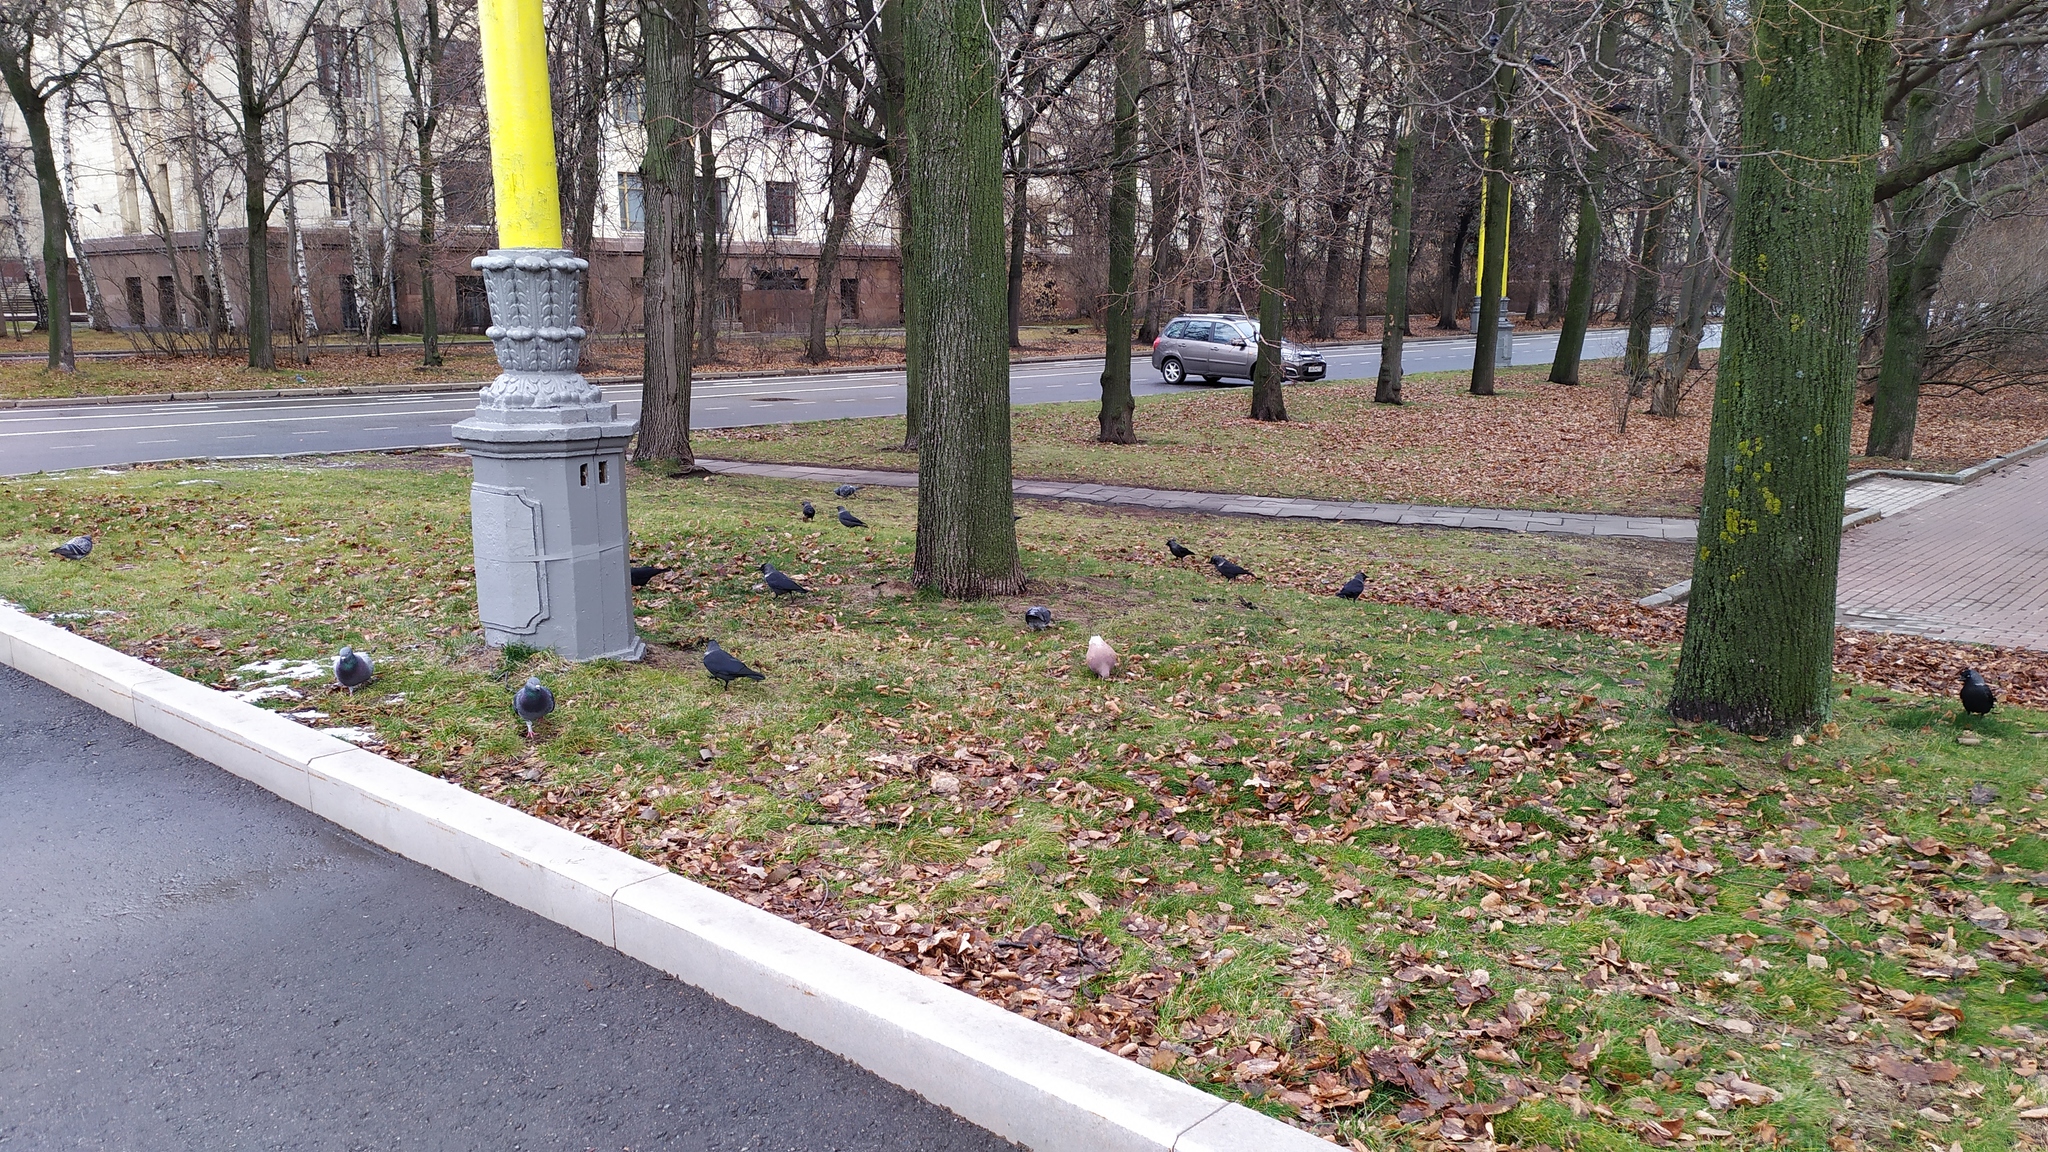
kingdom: Animalia
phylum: Chordata
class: Aves
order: Passeriformes
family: Corvidae
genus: Coloeus
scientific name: Coloeus monedula
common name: Western jackdaw
